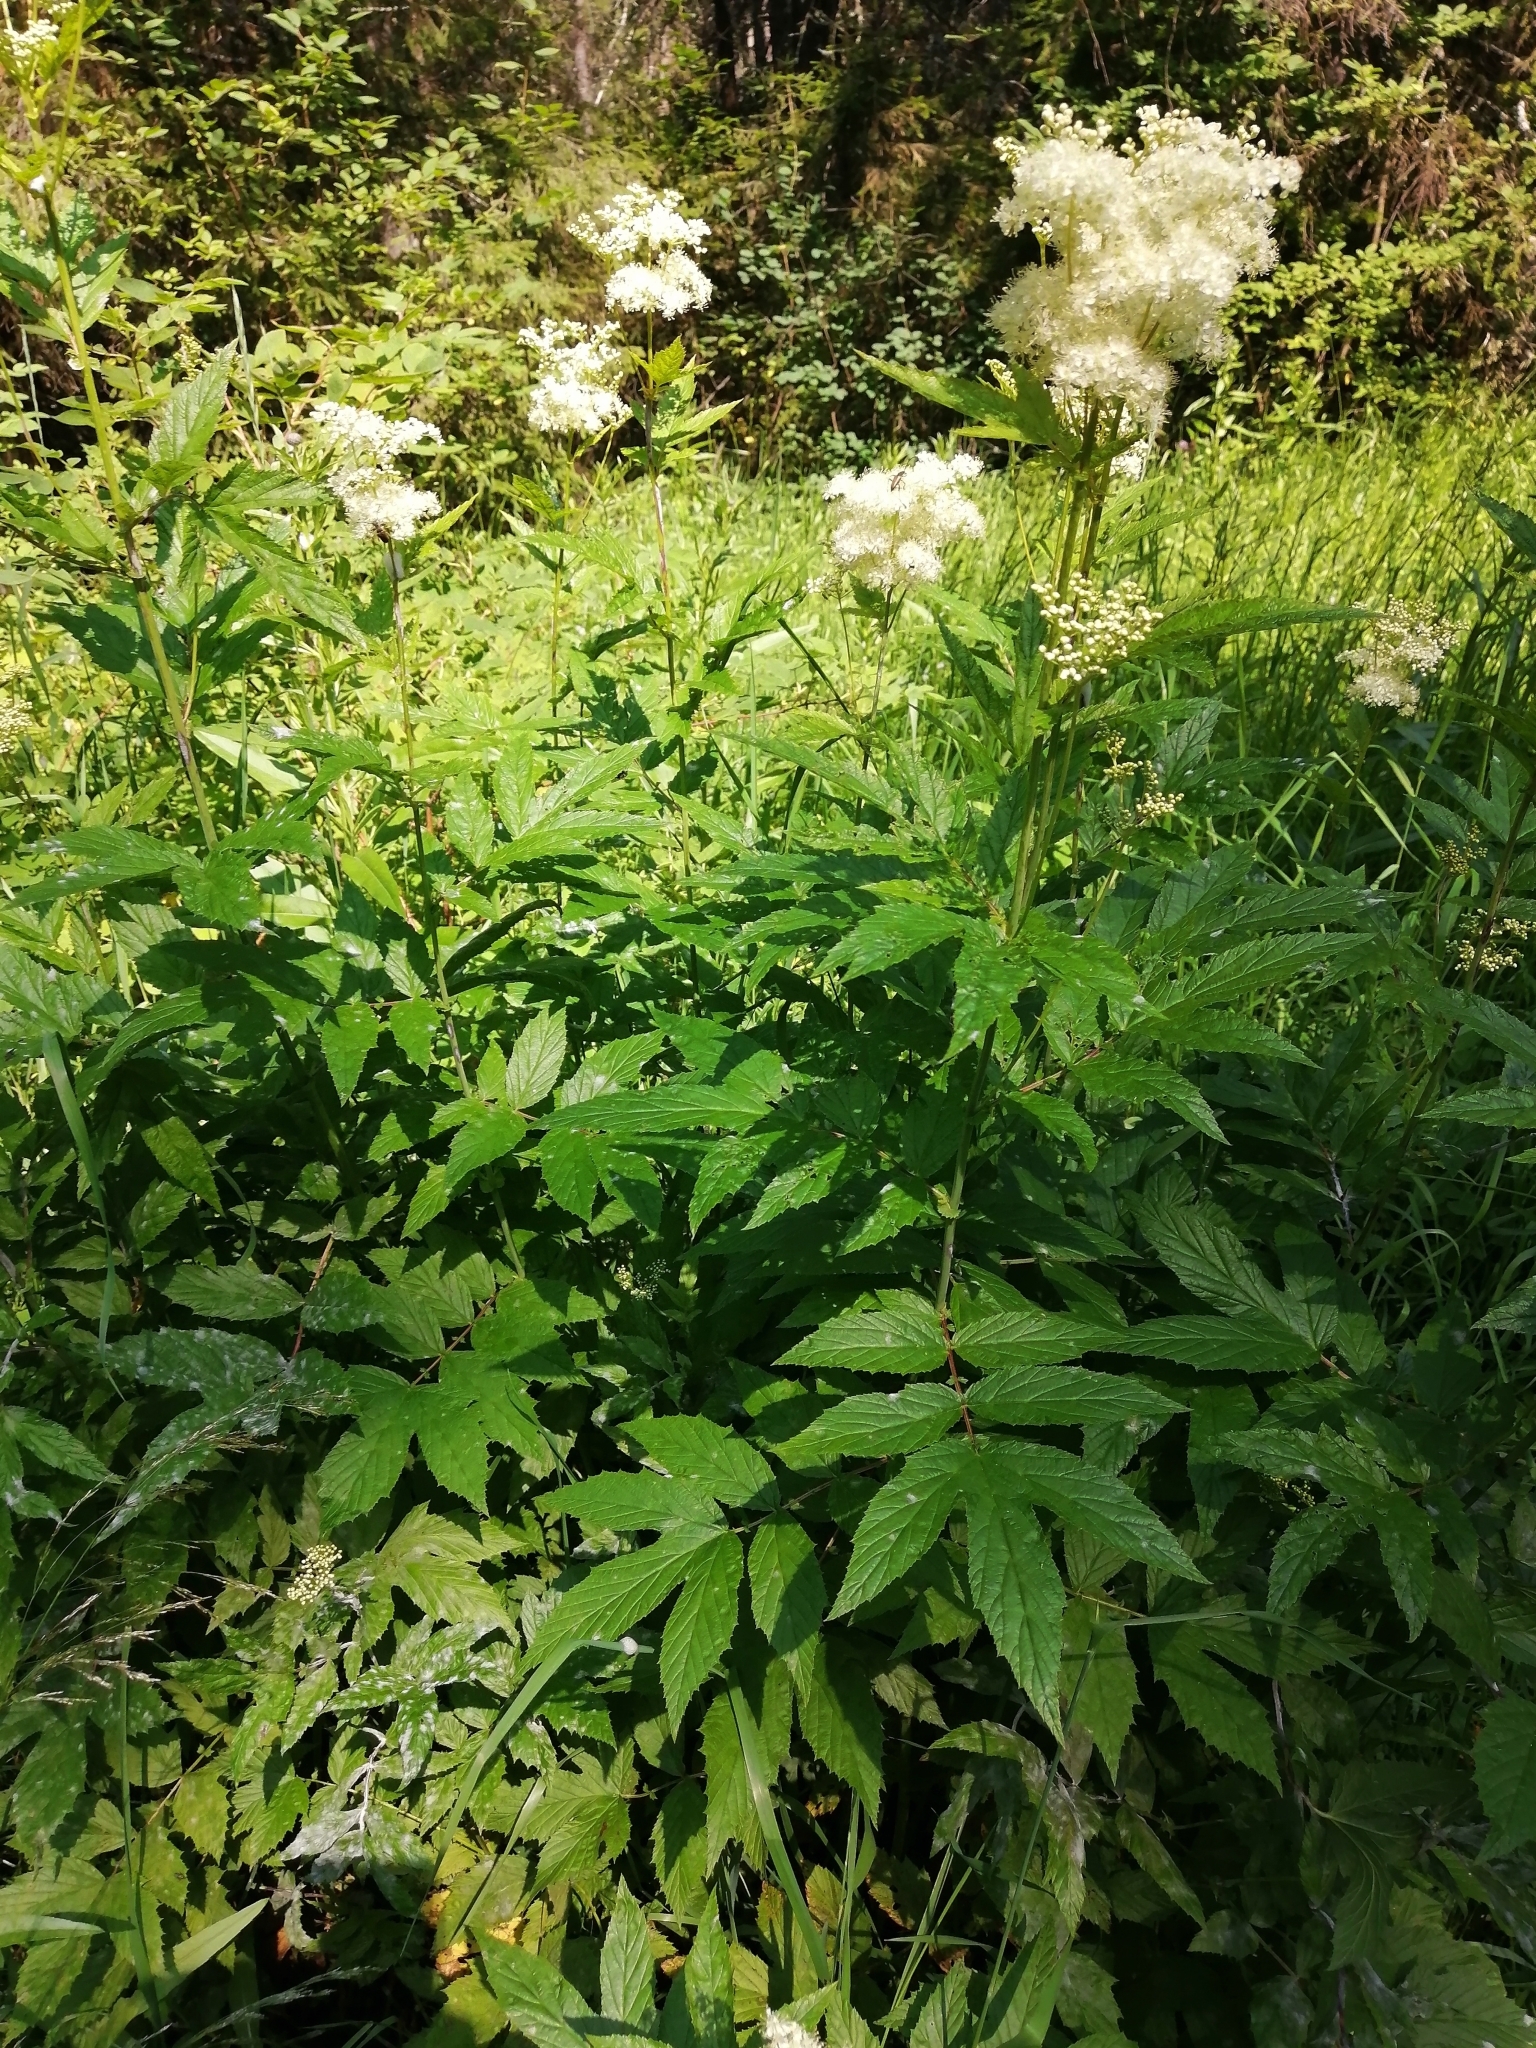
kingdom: Plantae
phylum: Tracheophyta
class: Magnoliopsida
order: Rosales
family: Rosaceae
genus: Filipendula
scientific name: Filipendula ulmaria
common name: Meadowsweet
